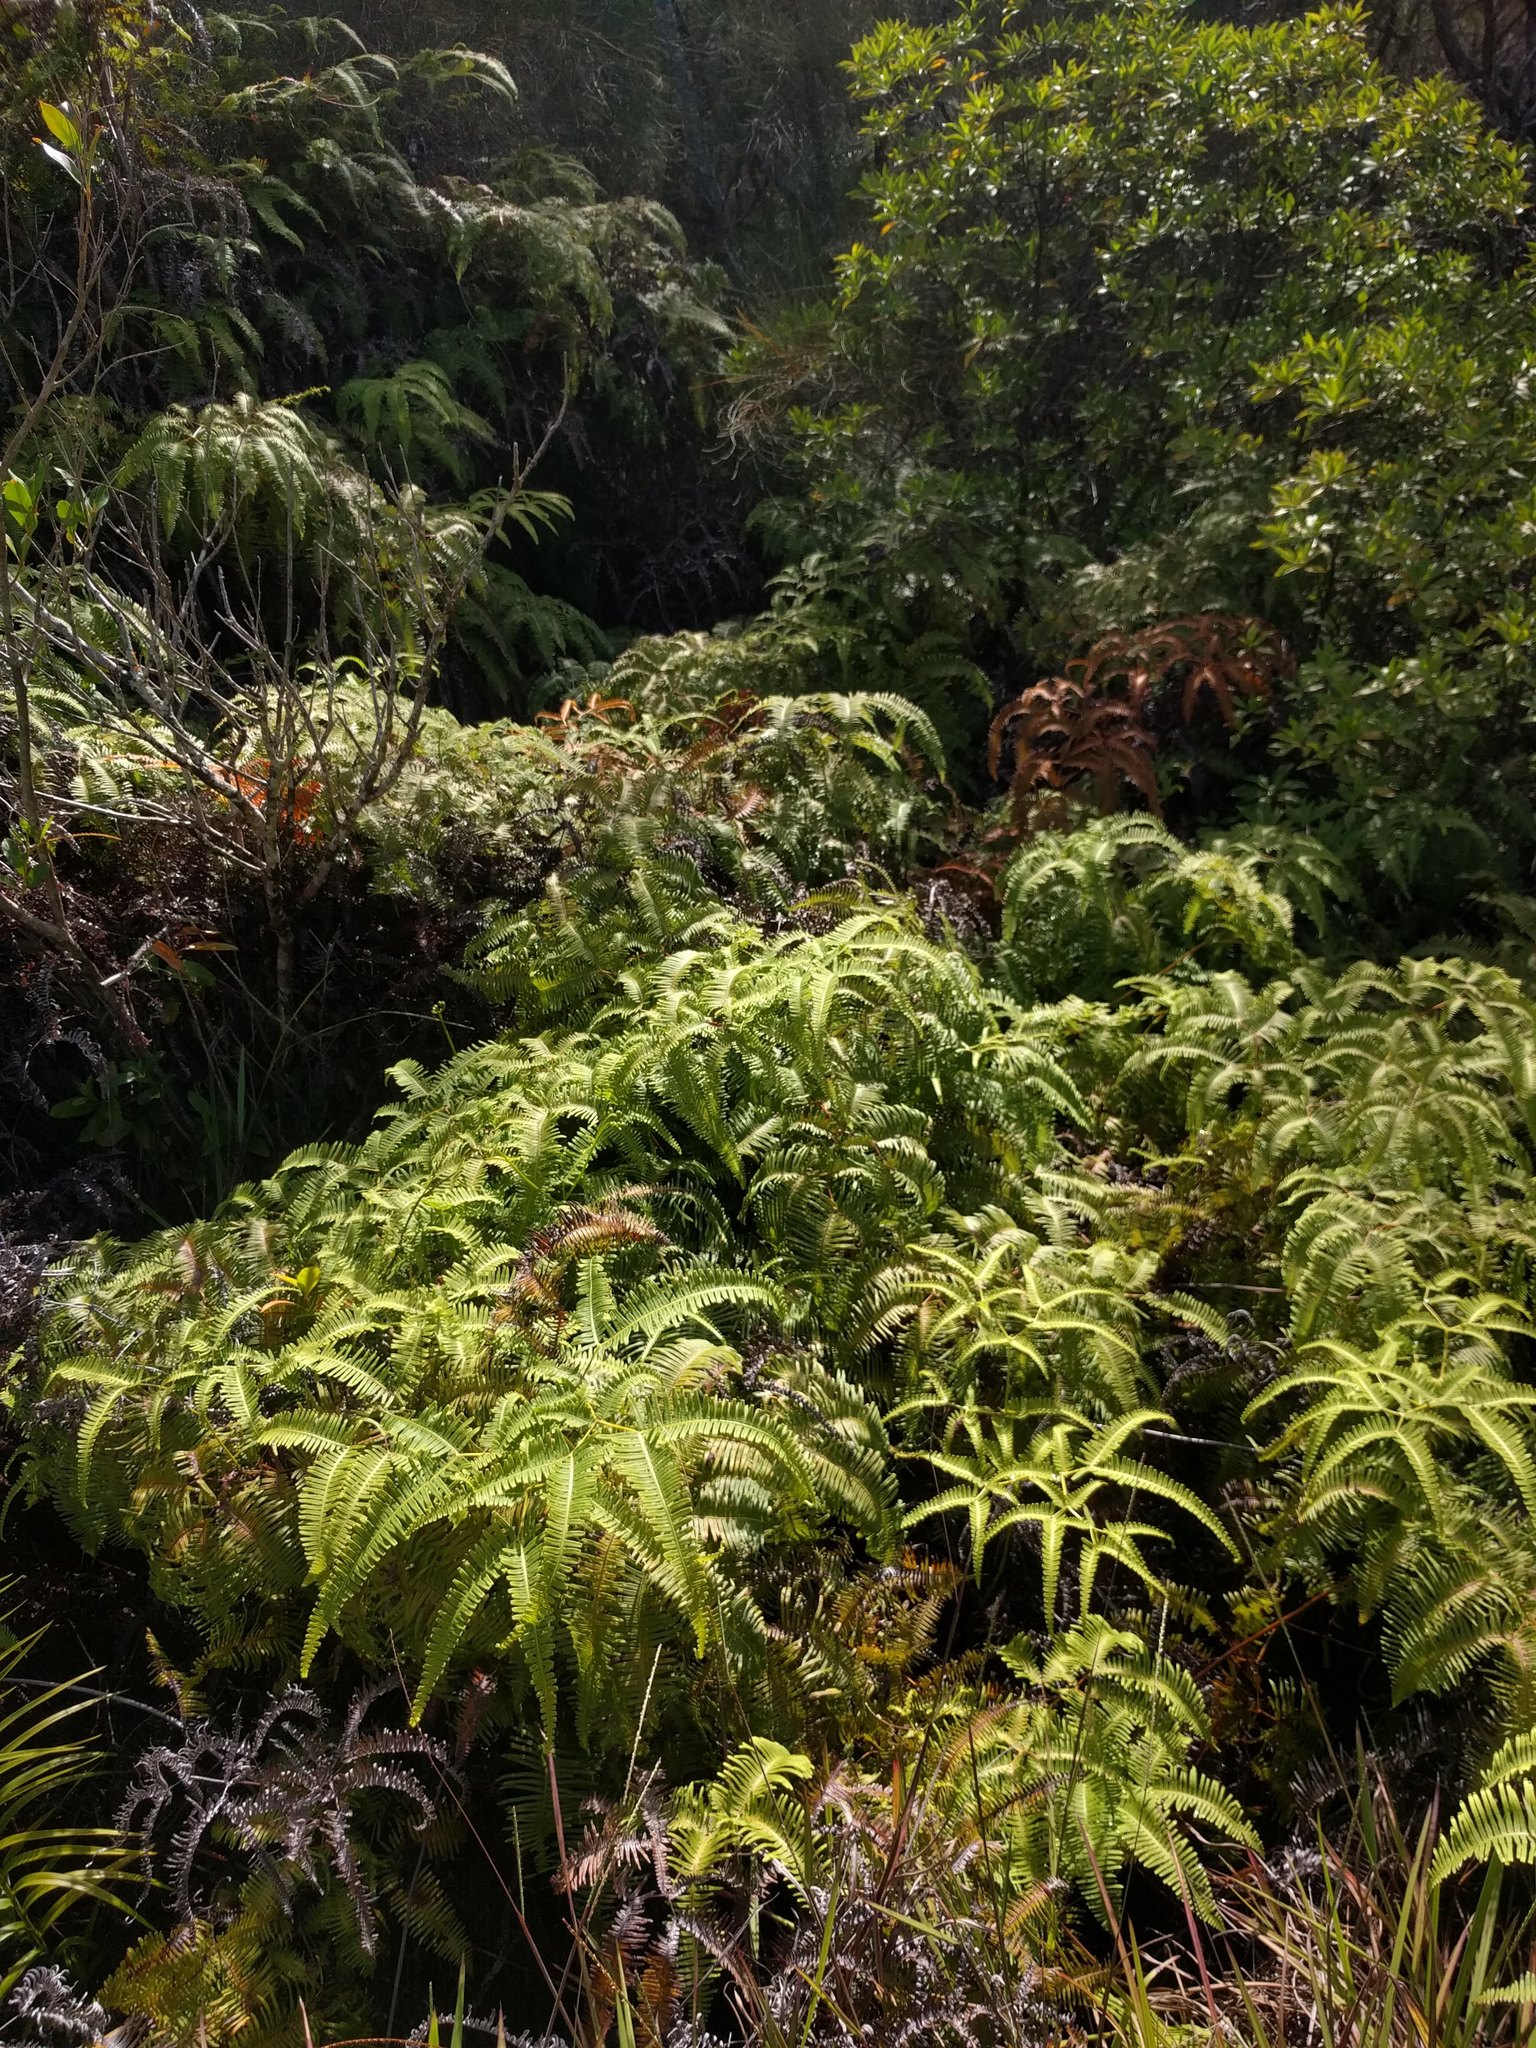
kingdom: Plantae
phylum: Tracheophyta
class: Polypodiopsida
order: Gleicheniales
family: Gleicheniaceae
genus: Dicranopteris
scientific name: Dicranopteris linearis
